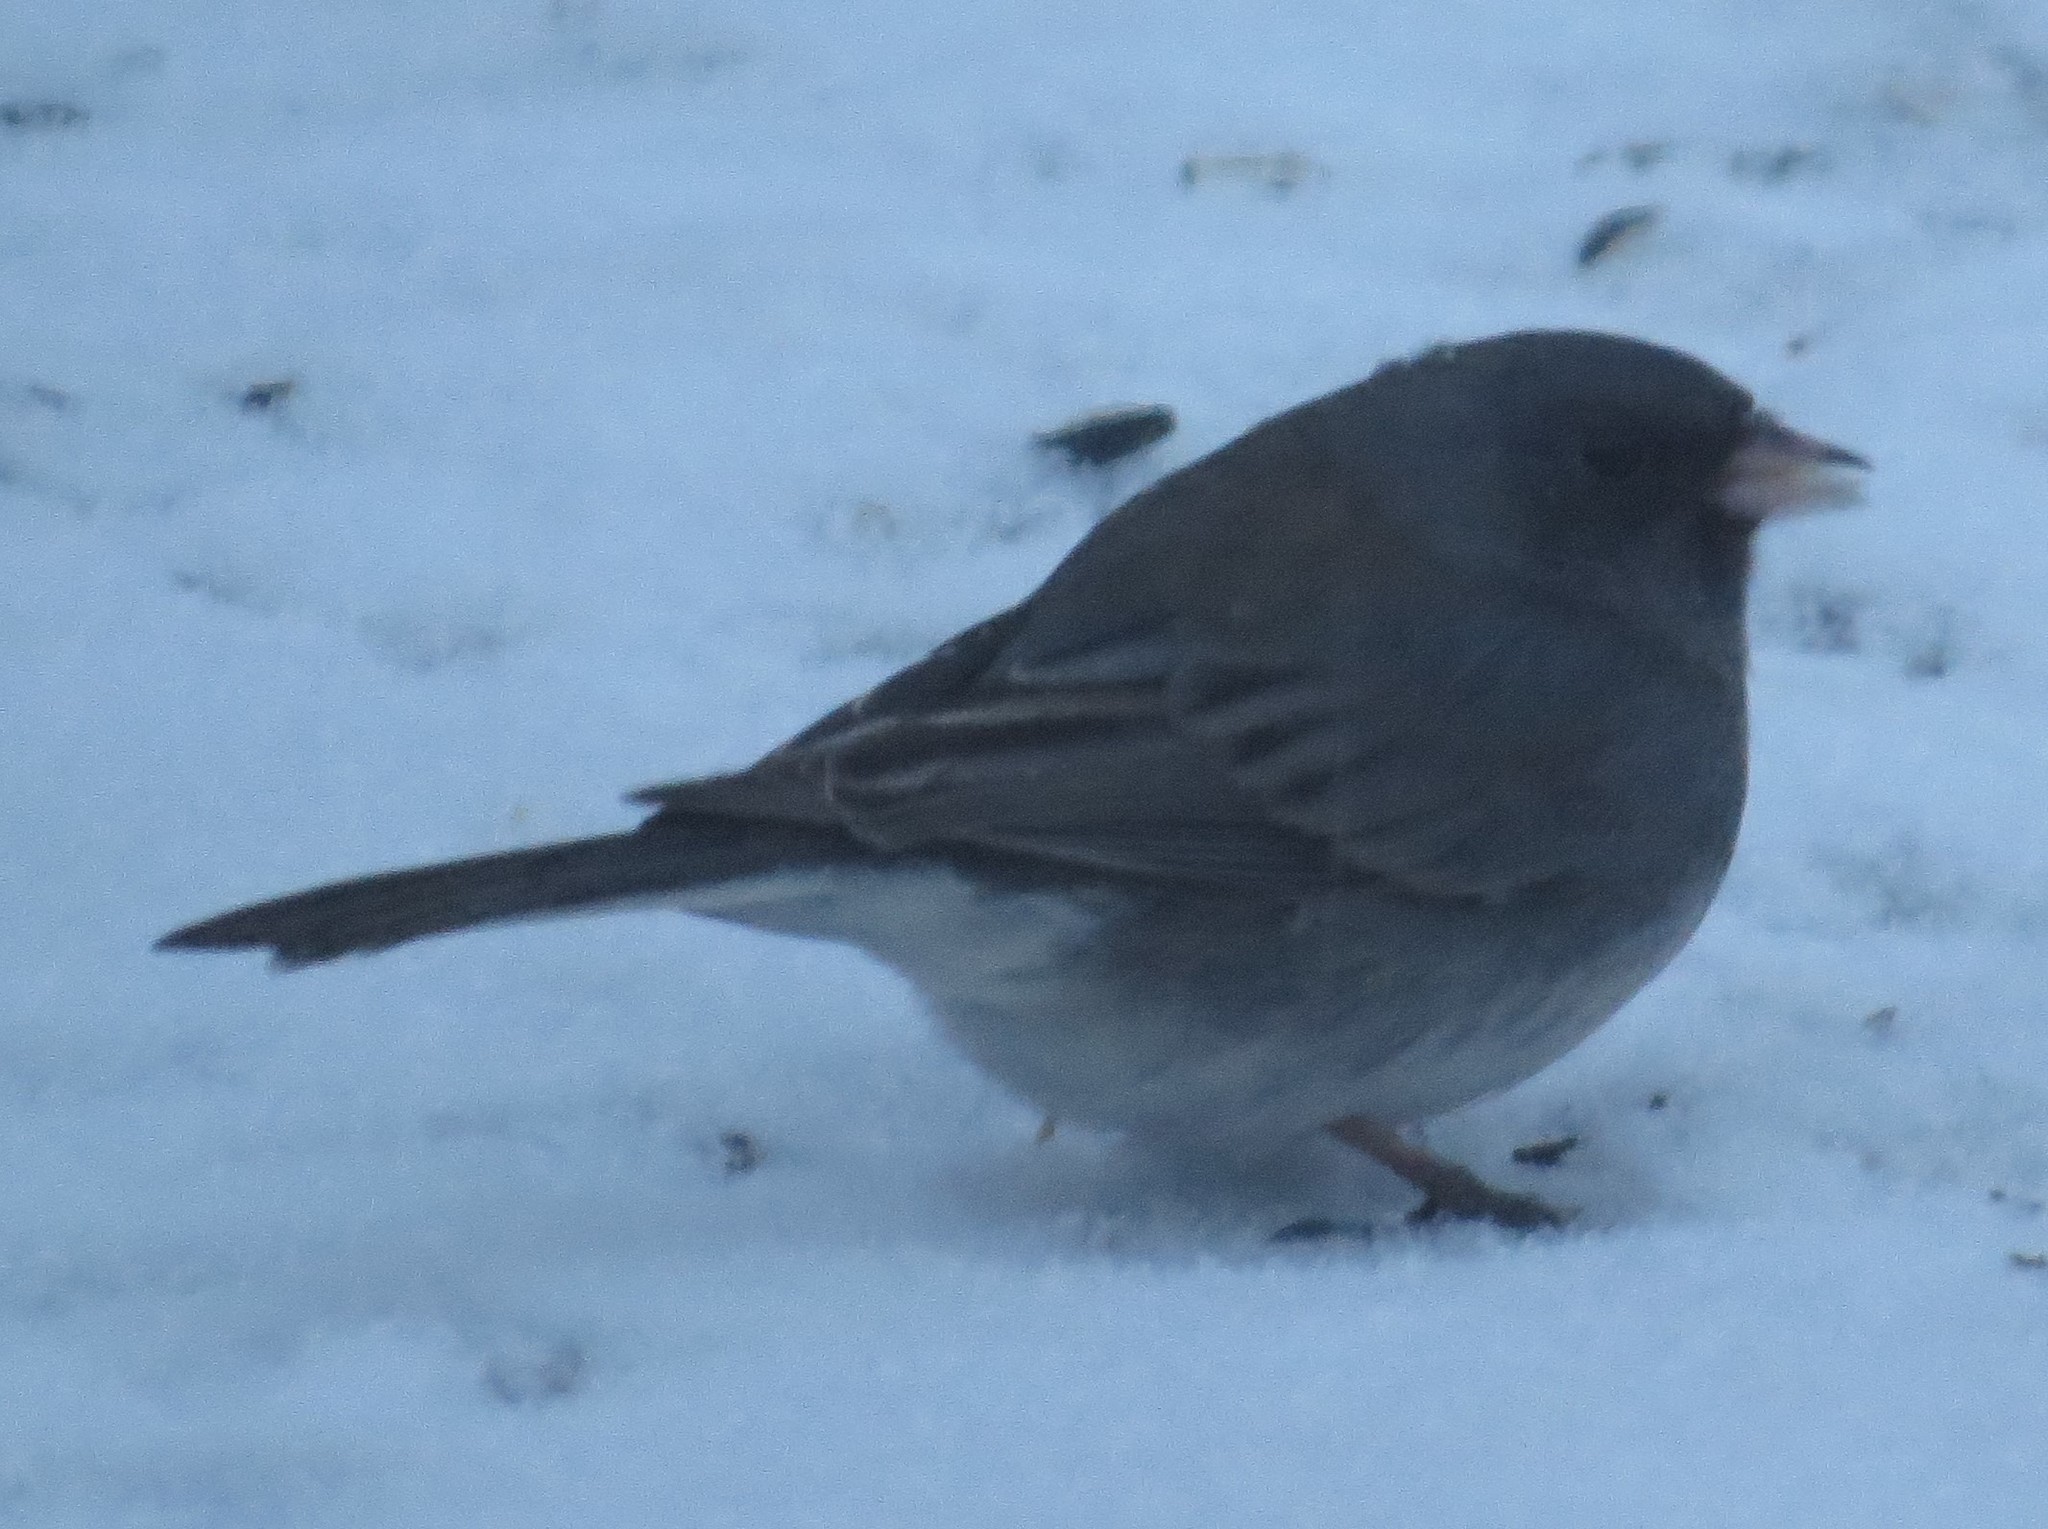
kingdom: Animalia
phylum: Chordata
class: Aves
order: Passeriformes
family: Passerellidae
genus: Junco
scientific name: Junco hyemalis
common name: Dark-eyed junco
